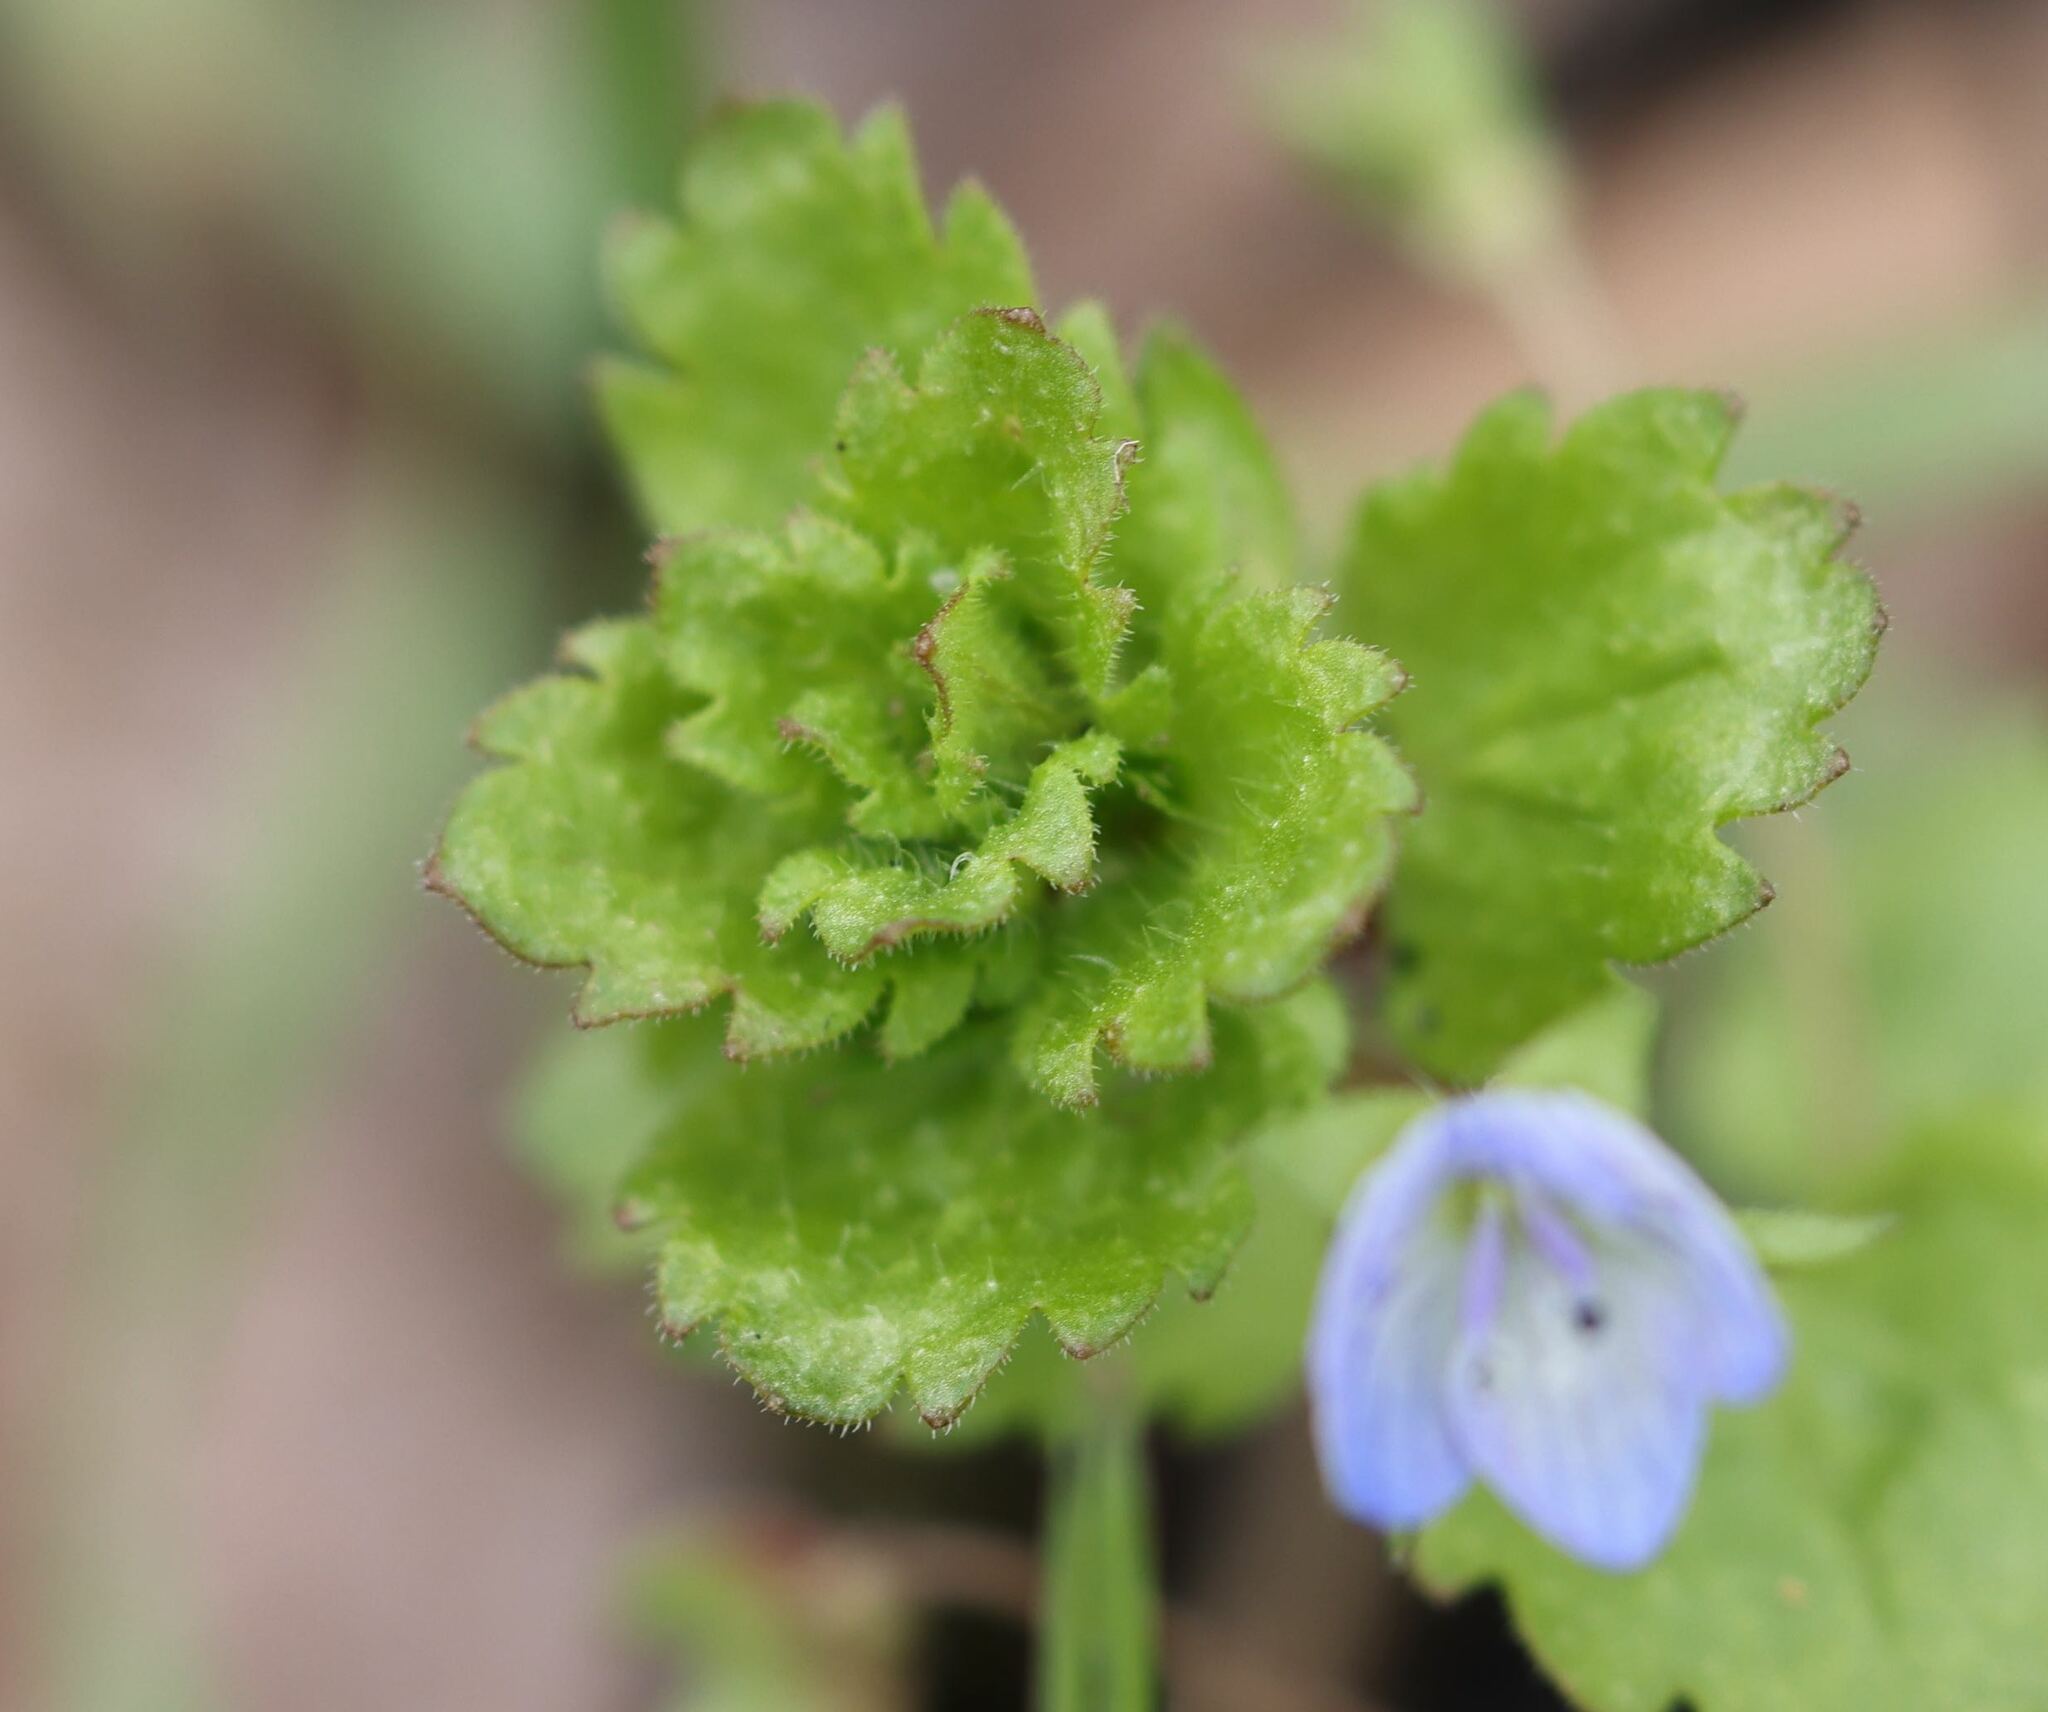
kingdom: Plantae
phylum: Tracheophyta
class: Magnoliopsida
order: Lamiales
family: Plantaginaceae
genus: Veronica
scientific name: Veronica persica
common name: Common field-speedwell
